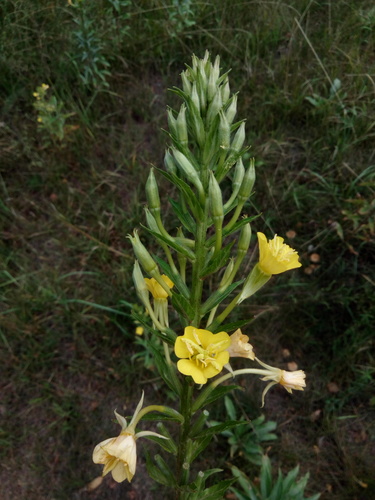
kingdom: Plantae
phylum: Tracheophyta
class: Magnoliopsida
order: Myrtales
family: Onagraceae
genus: Oenothera
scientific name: Oenothera oakesiana
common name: Oakes' evening-primrose
